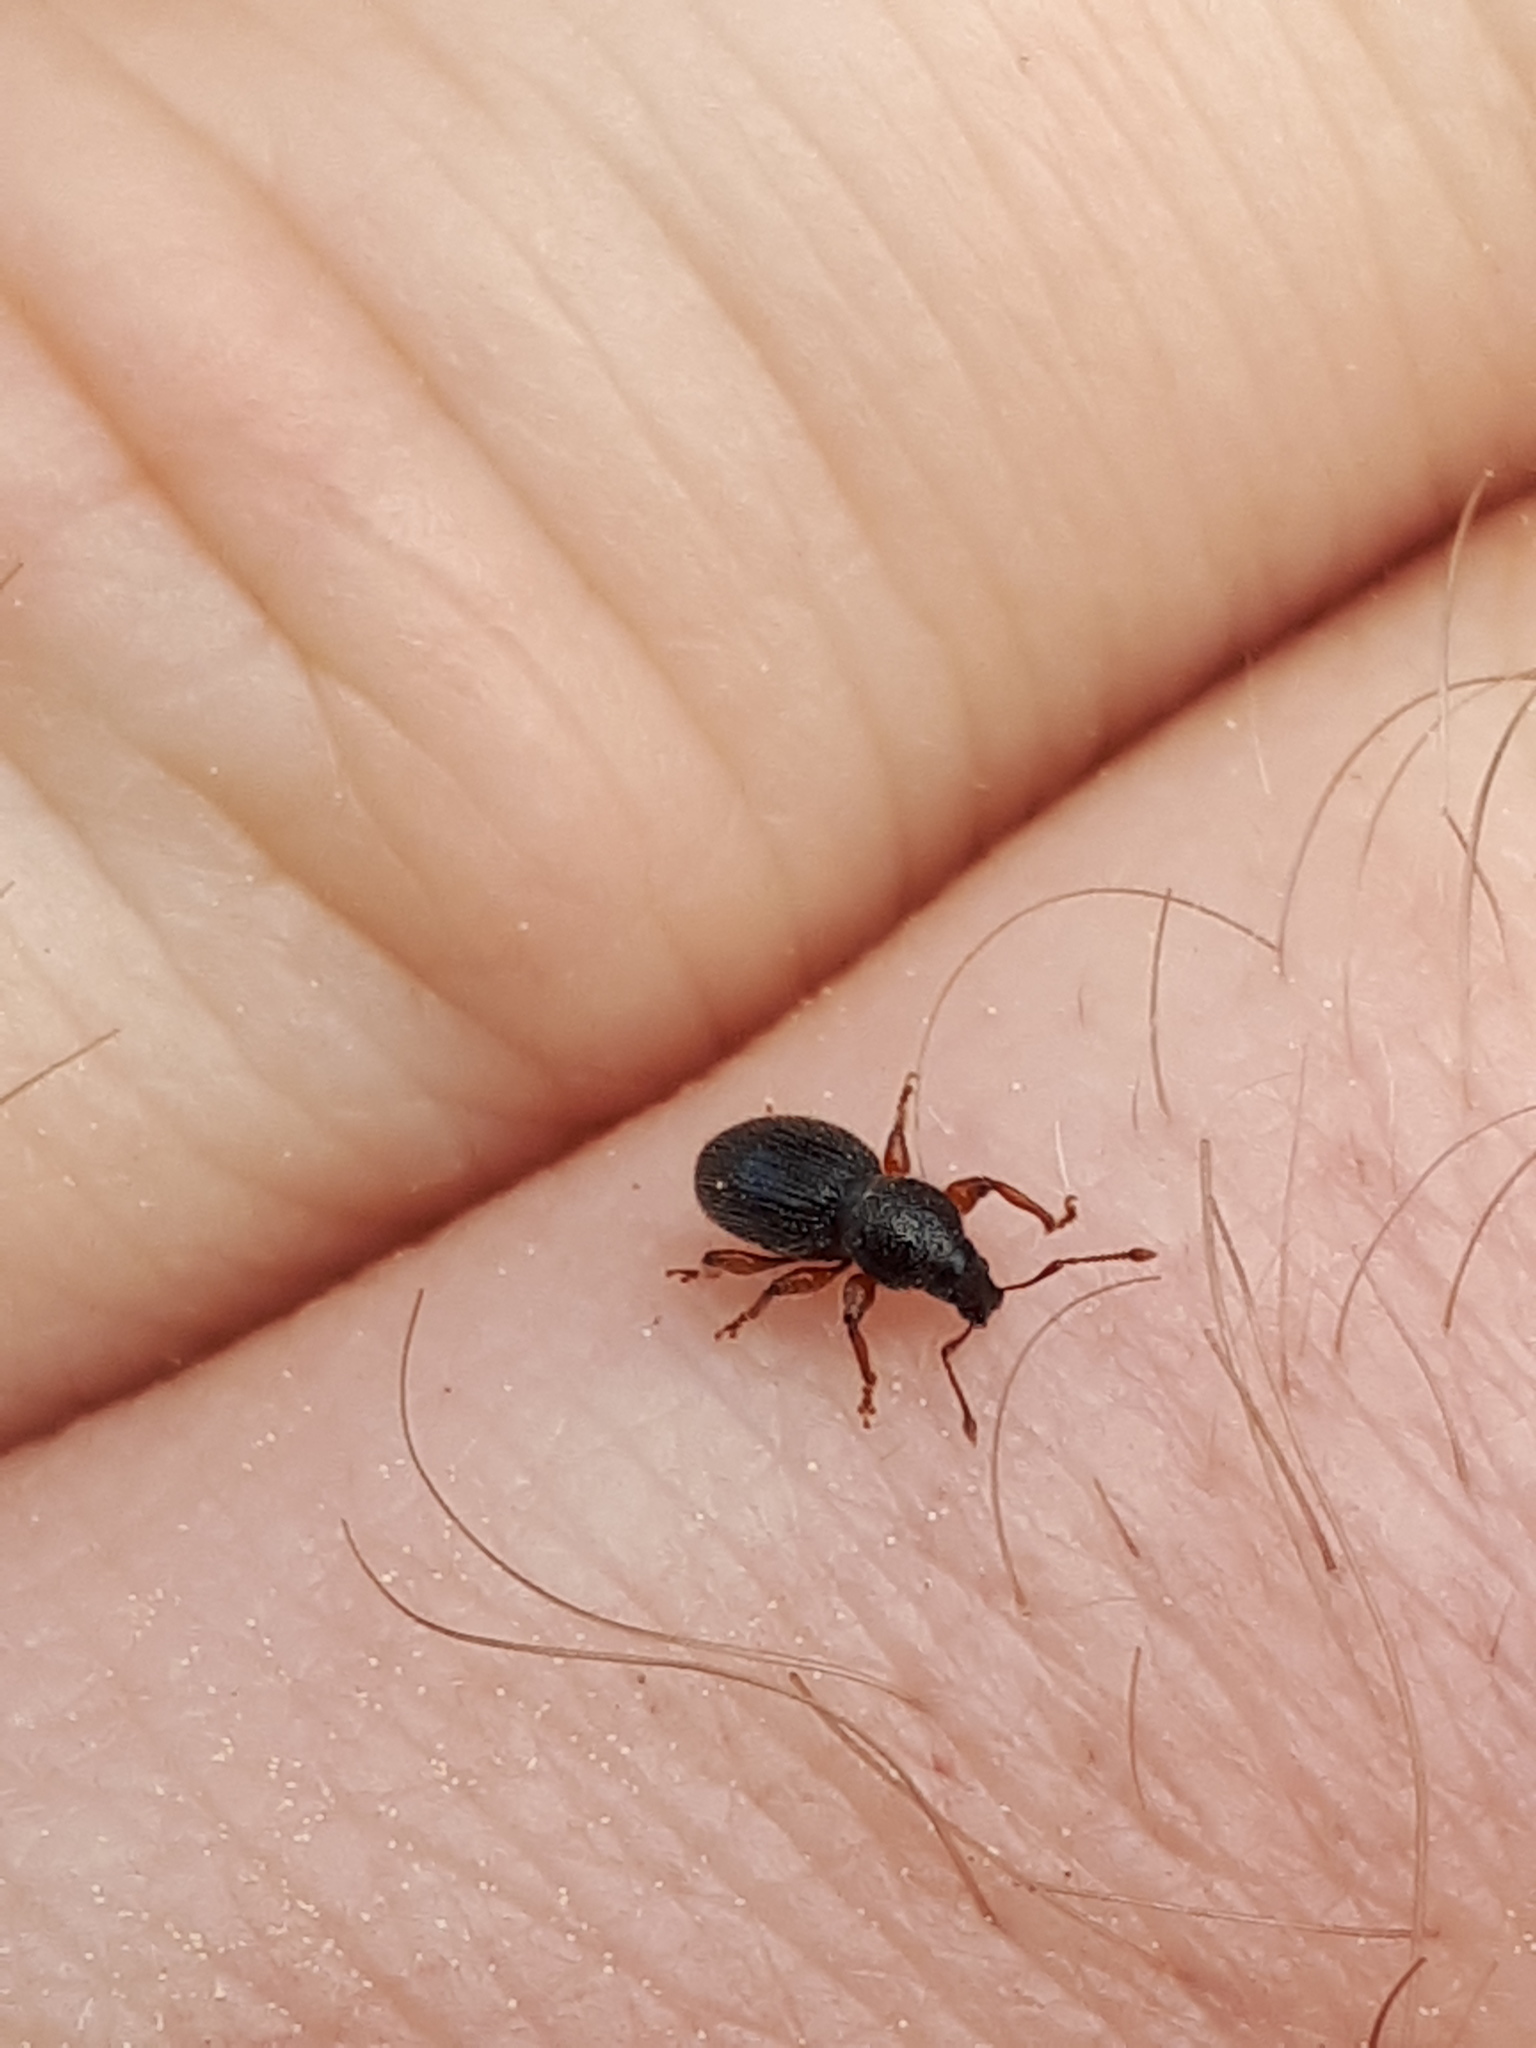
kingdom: Animalia
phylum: Arthropoda
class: Insecta
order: Coleoptera
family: Curculionidae
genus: Exomias
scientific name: Exomias pellucidus
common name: Hairy spider weevil
